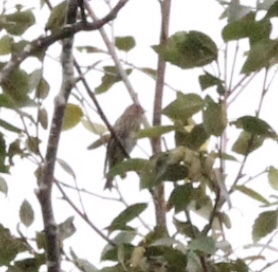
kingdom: Animalia
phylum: Chordata
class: Aves
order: Passeriformes
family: Fringillidae
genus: Spinus
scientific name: Spinus pinus
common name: Pine siskin
